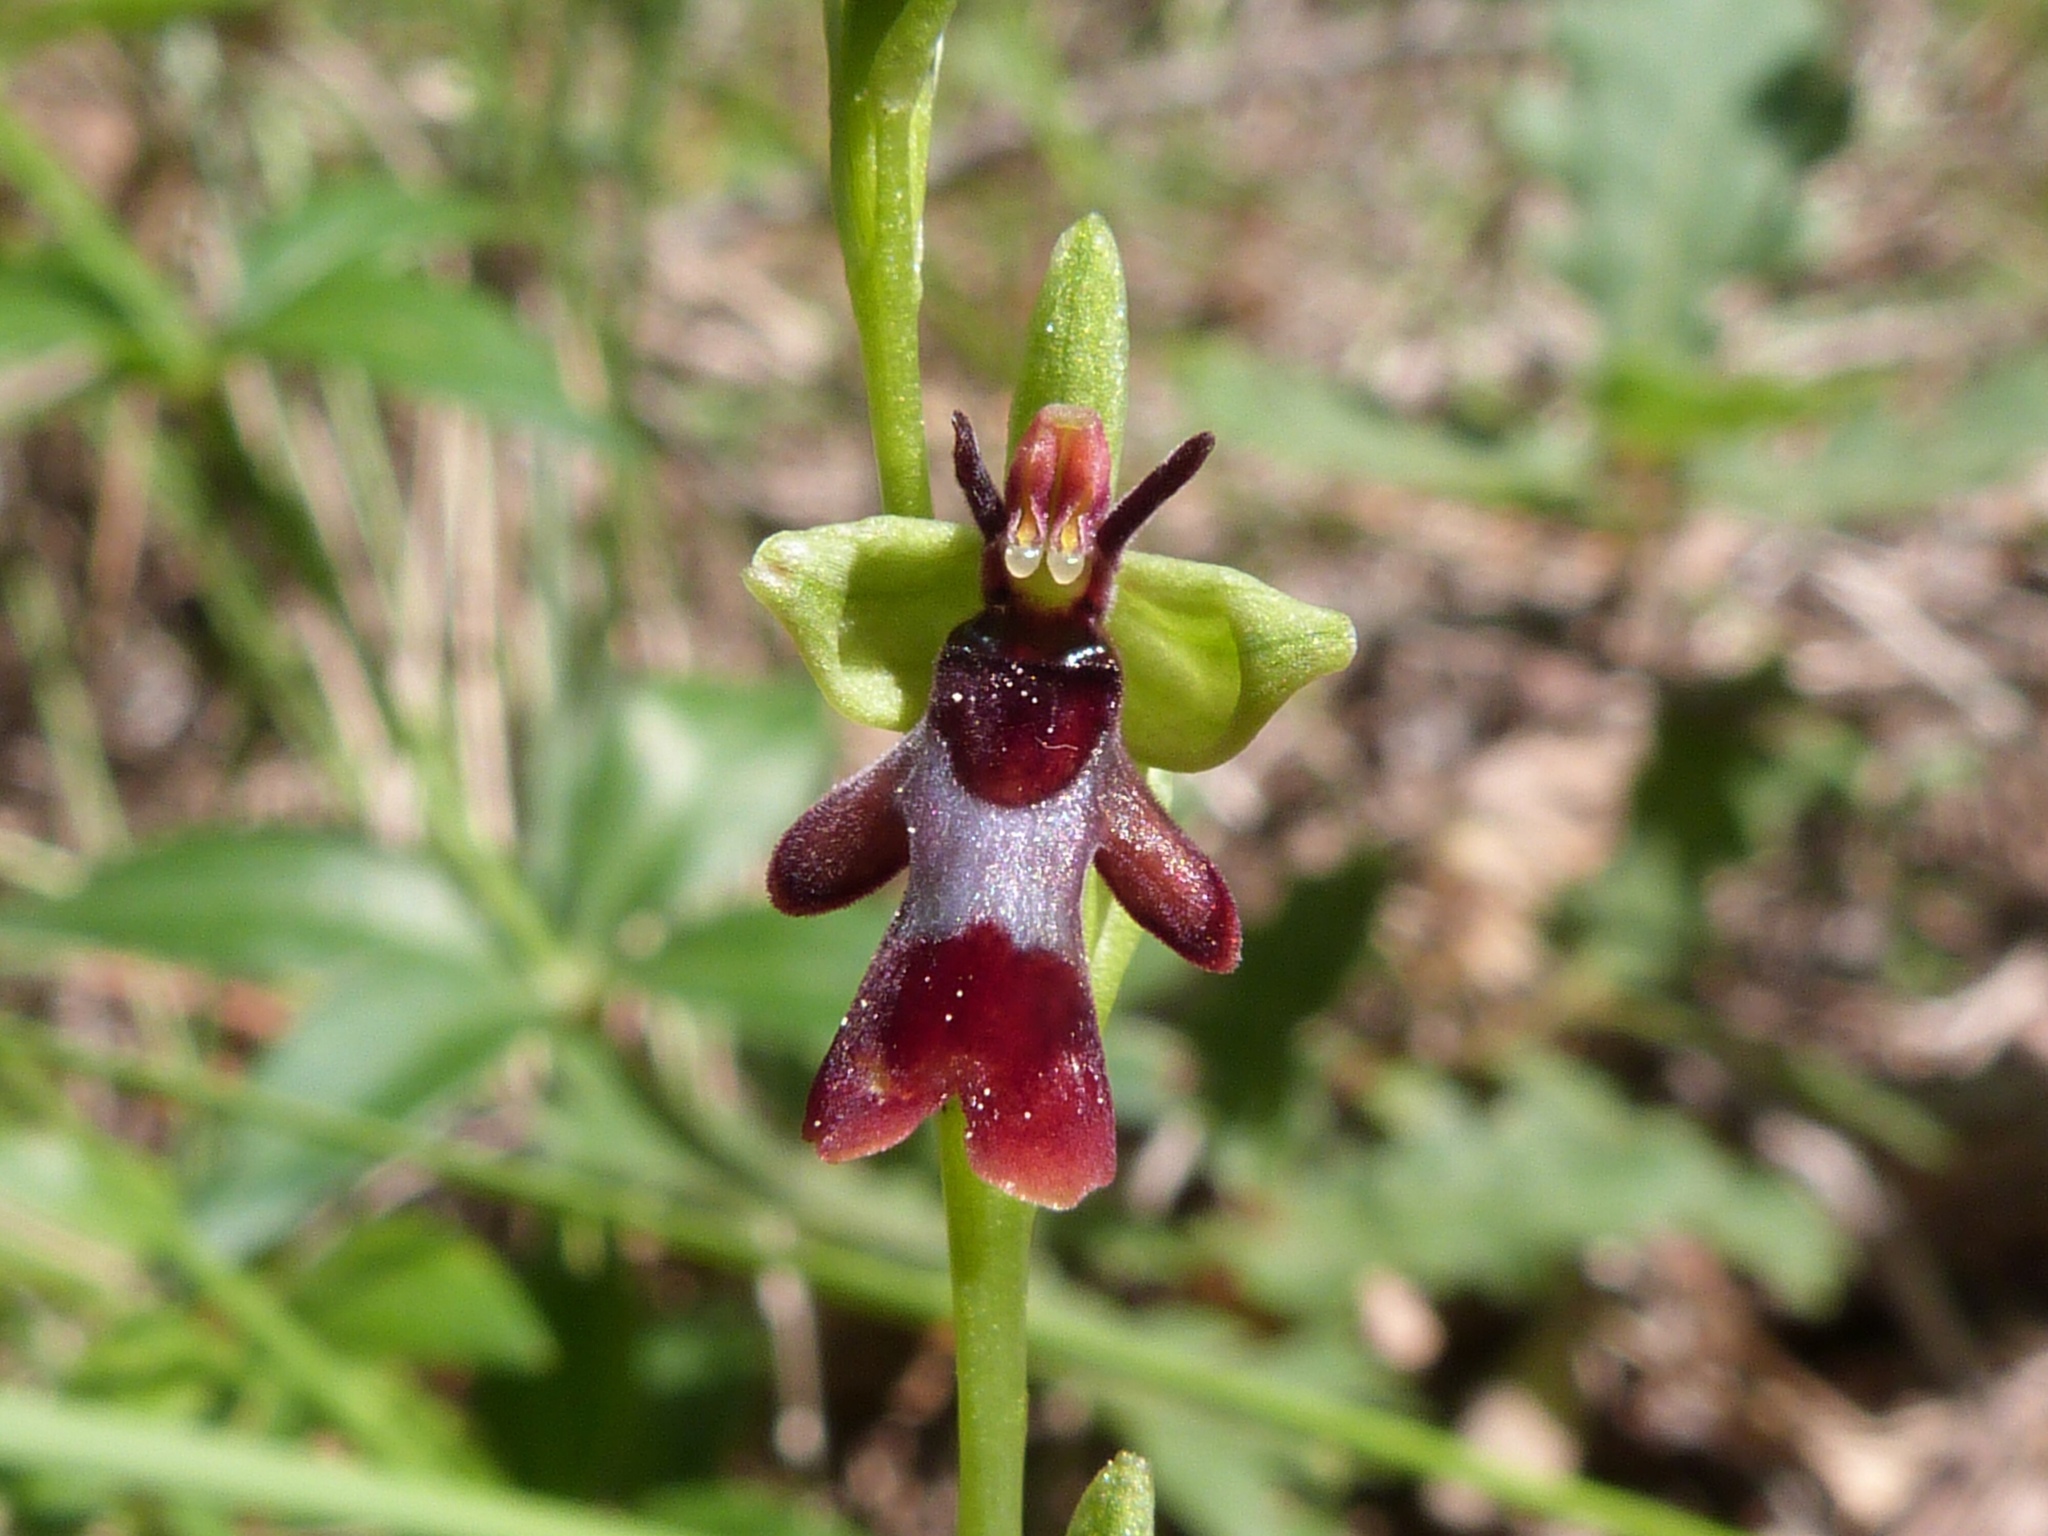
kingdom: Plantae
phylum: Tracheophyta
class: Liliopsida
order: Asparagales
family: Orchidaceae
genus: Ophrys
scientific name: Ophrys insectifera
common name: Fly orchid
